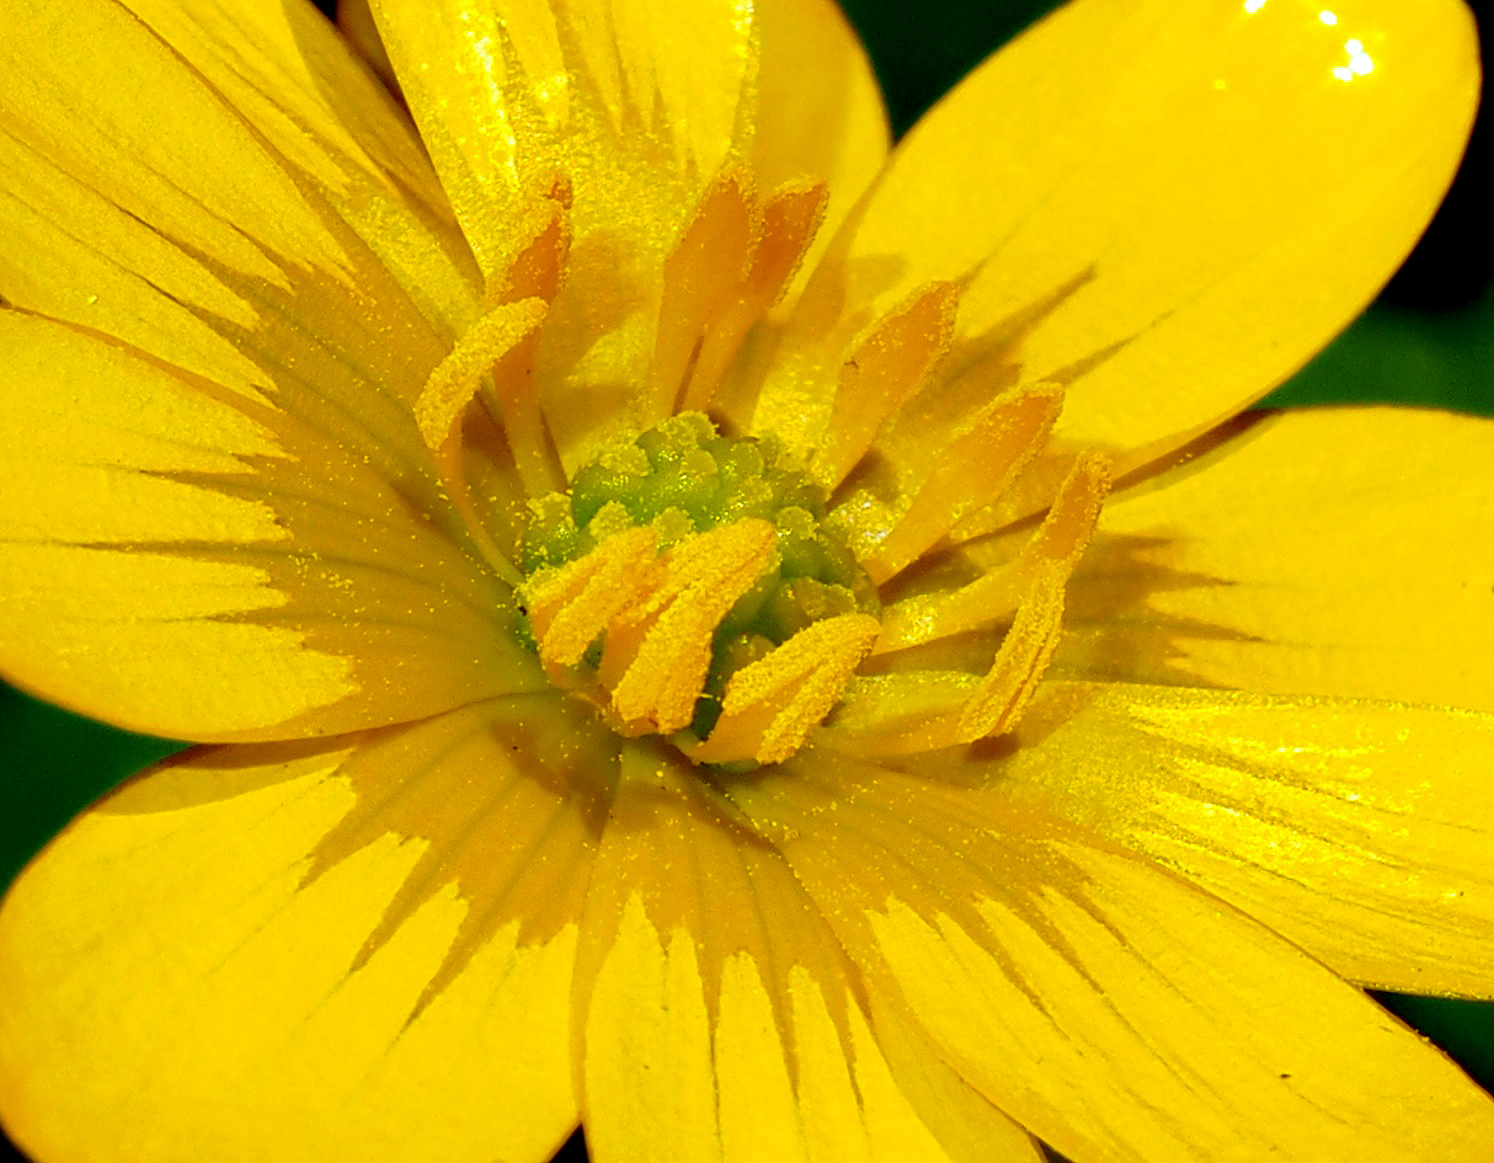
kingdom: Plantae
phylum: Tracheophyta
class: Magnoliopsida
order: Ranunculales
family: Ranunculaceae
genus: Ficaria
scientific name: Ficaria verna
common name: Lesser celandine
